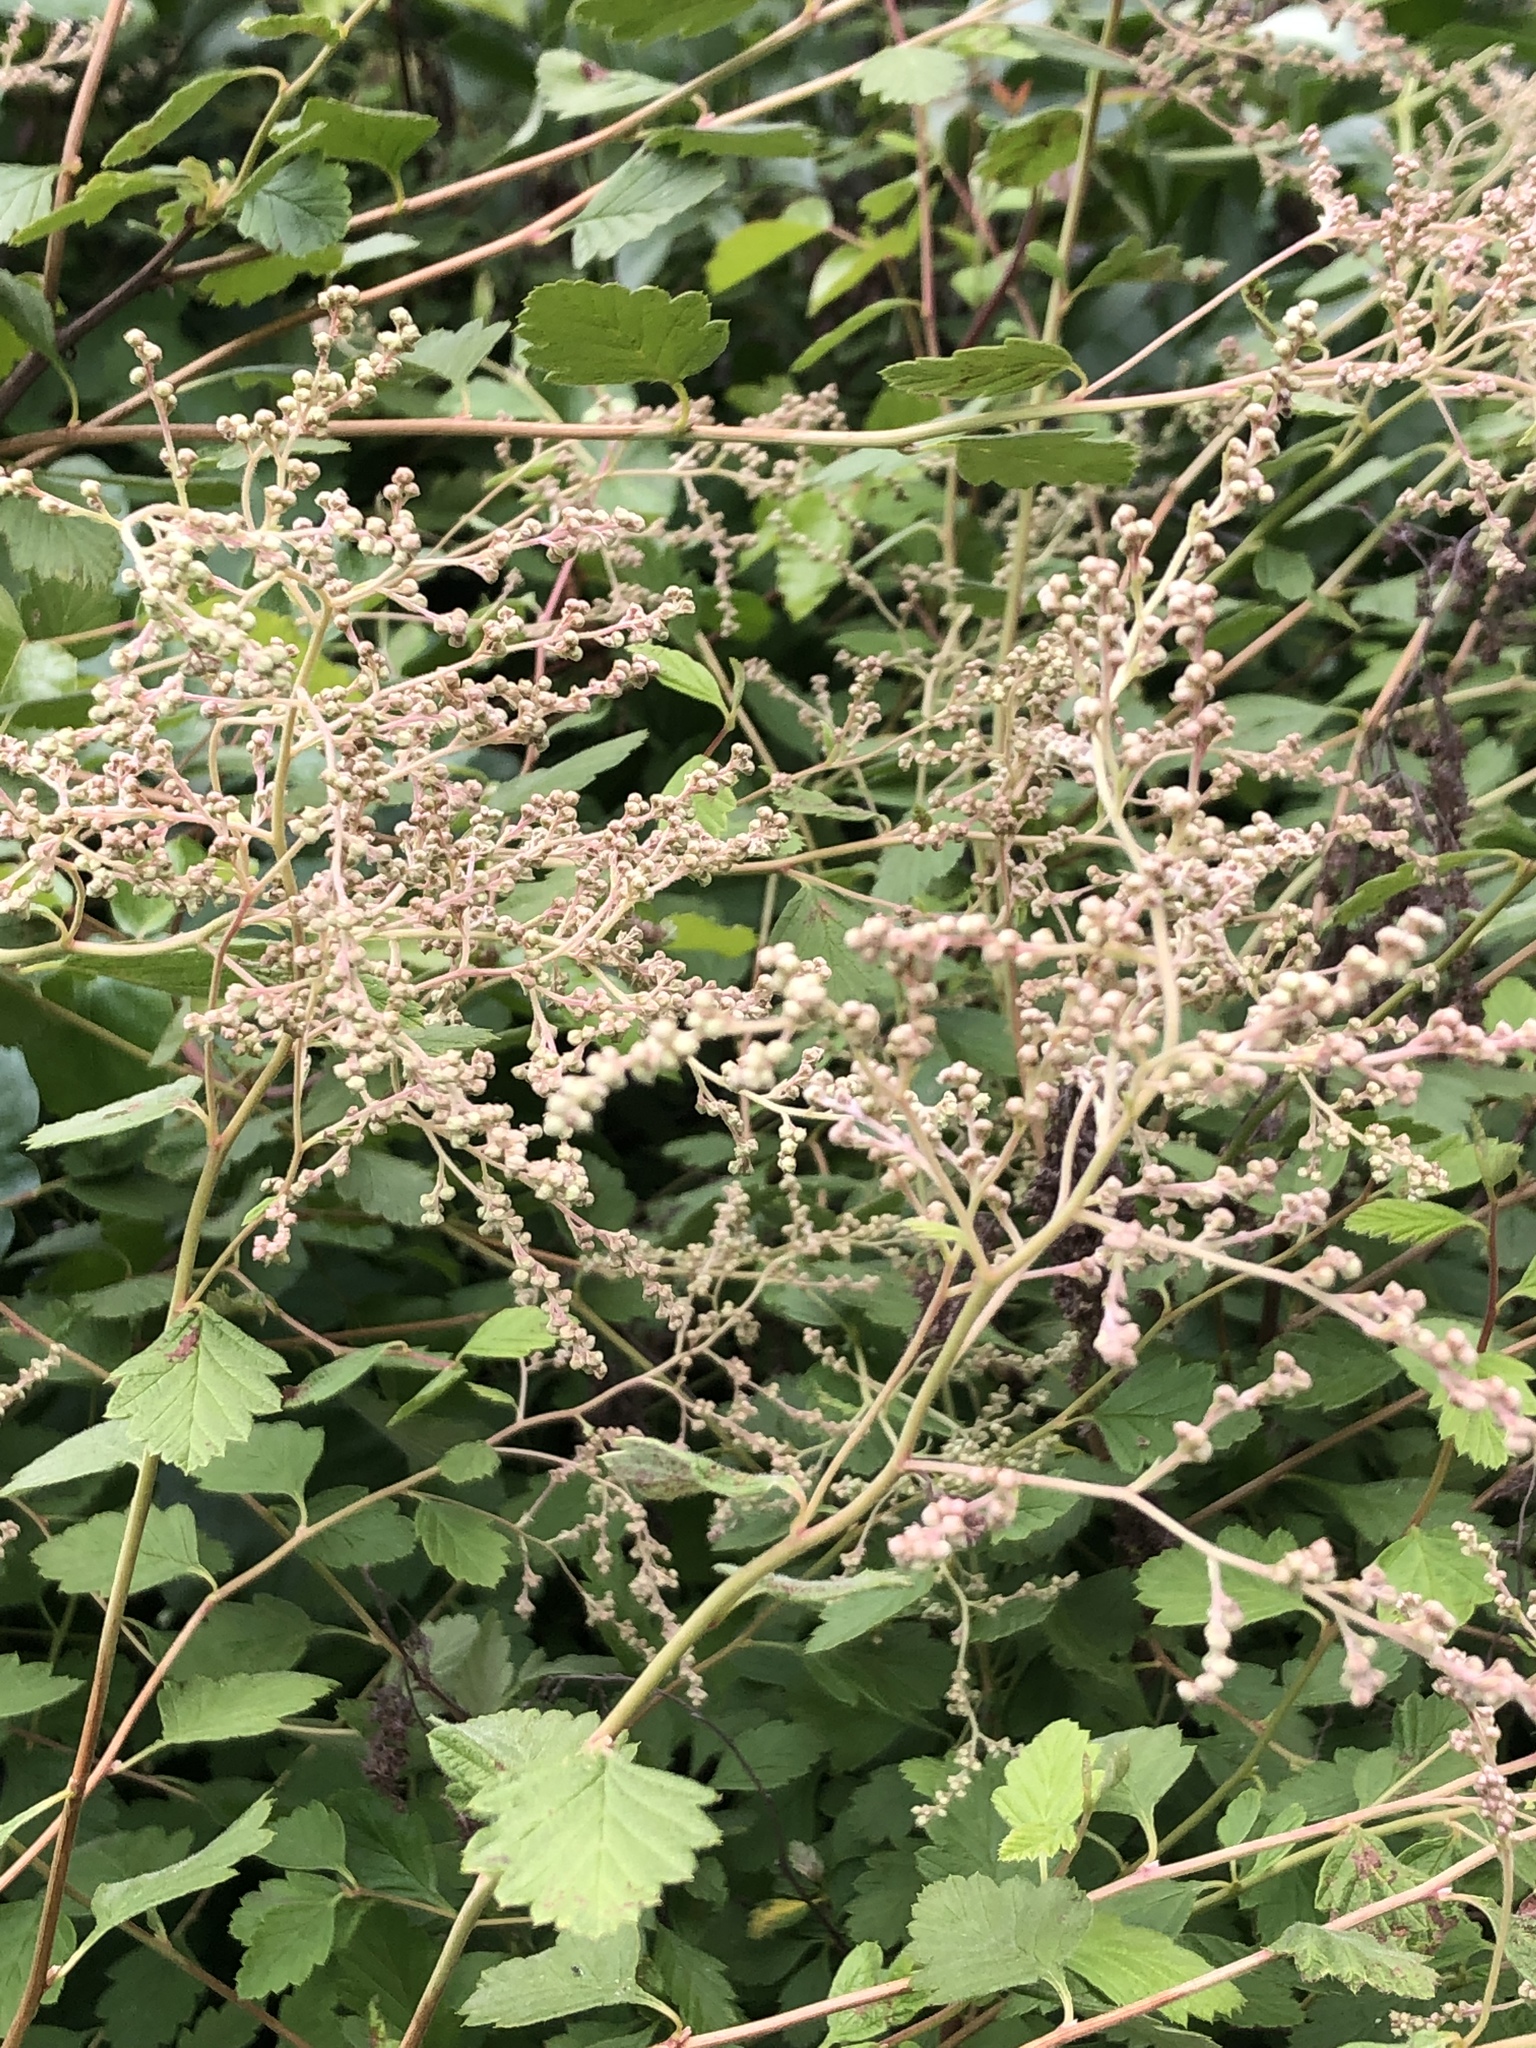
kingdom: Plantae
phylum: Tracheophyta
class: Magnoliopsida
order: Rosales
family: Rosaceae
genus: Holodiscus
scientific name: Holodiscus discolor
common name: Oceanspray
